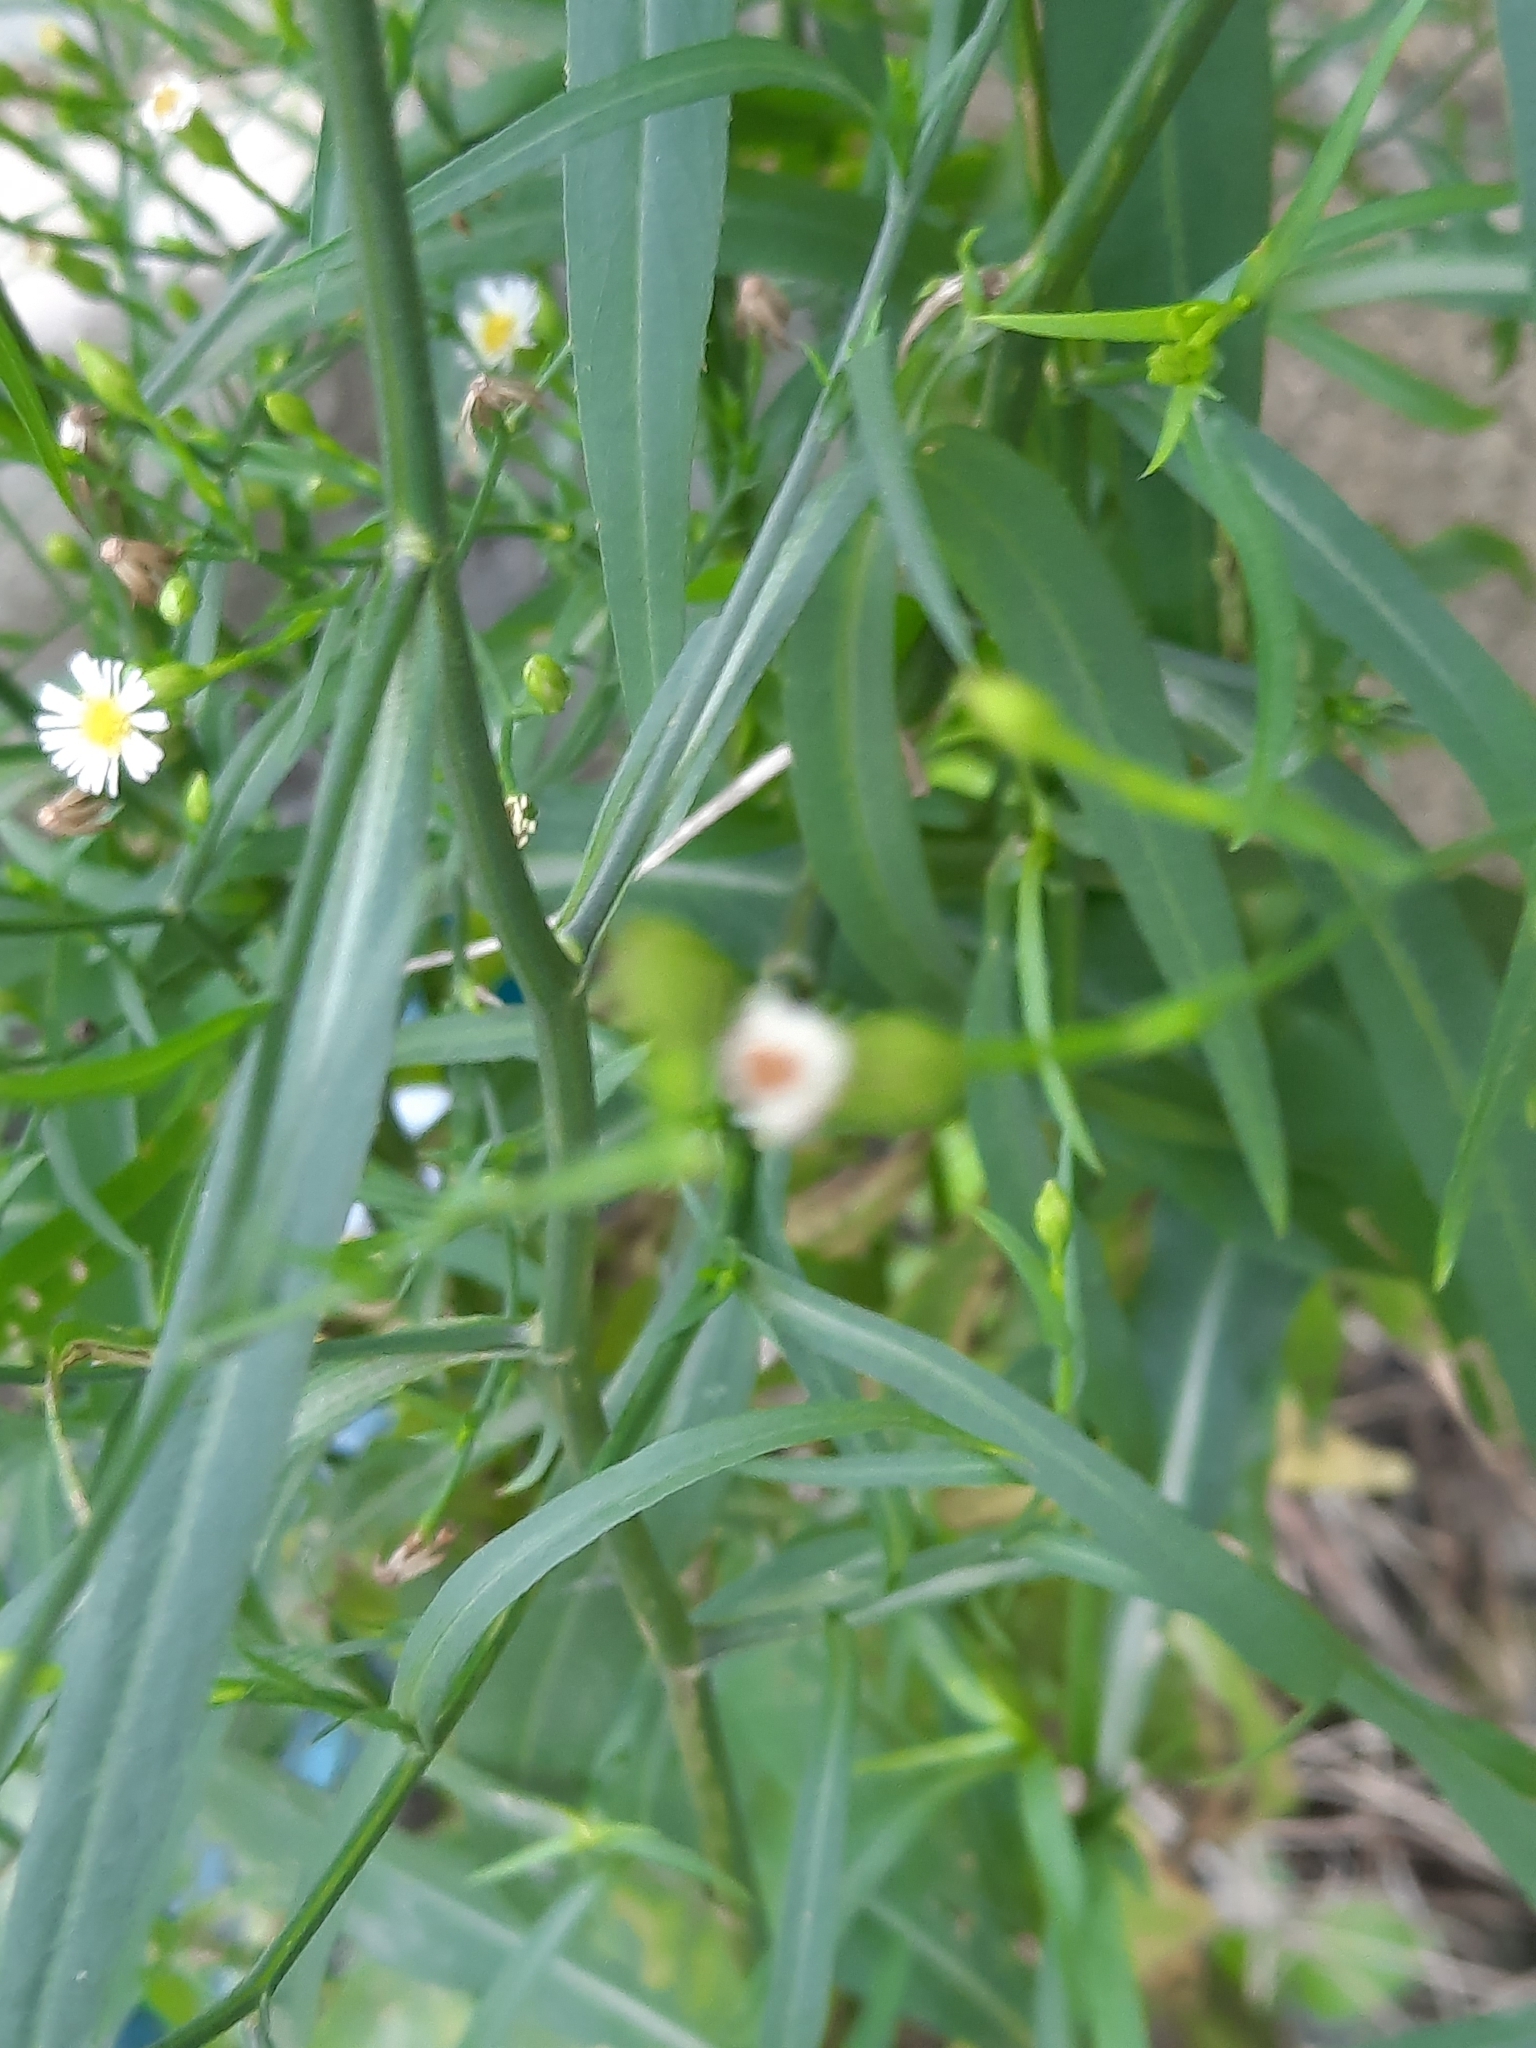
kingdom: Plantae
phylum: Tracheophyta
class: Magnoliopsida
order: Asterales
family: Asteraceae
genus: Symphyotrichum
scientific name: Symphyotrichum subulatum
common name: Annual saltmarsh aster
